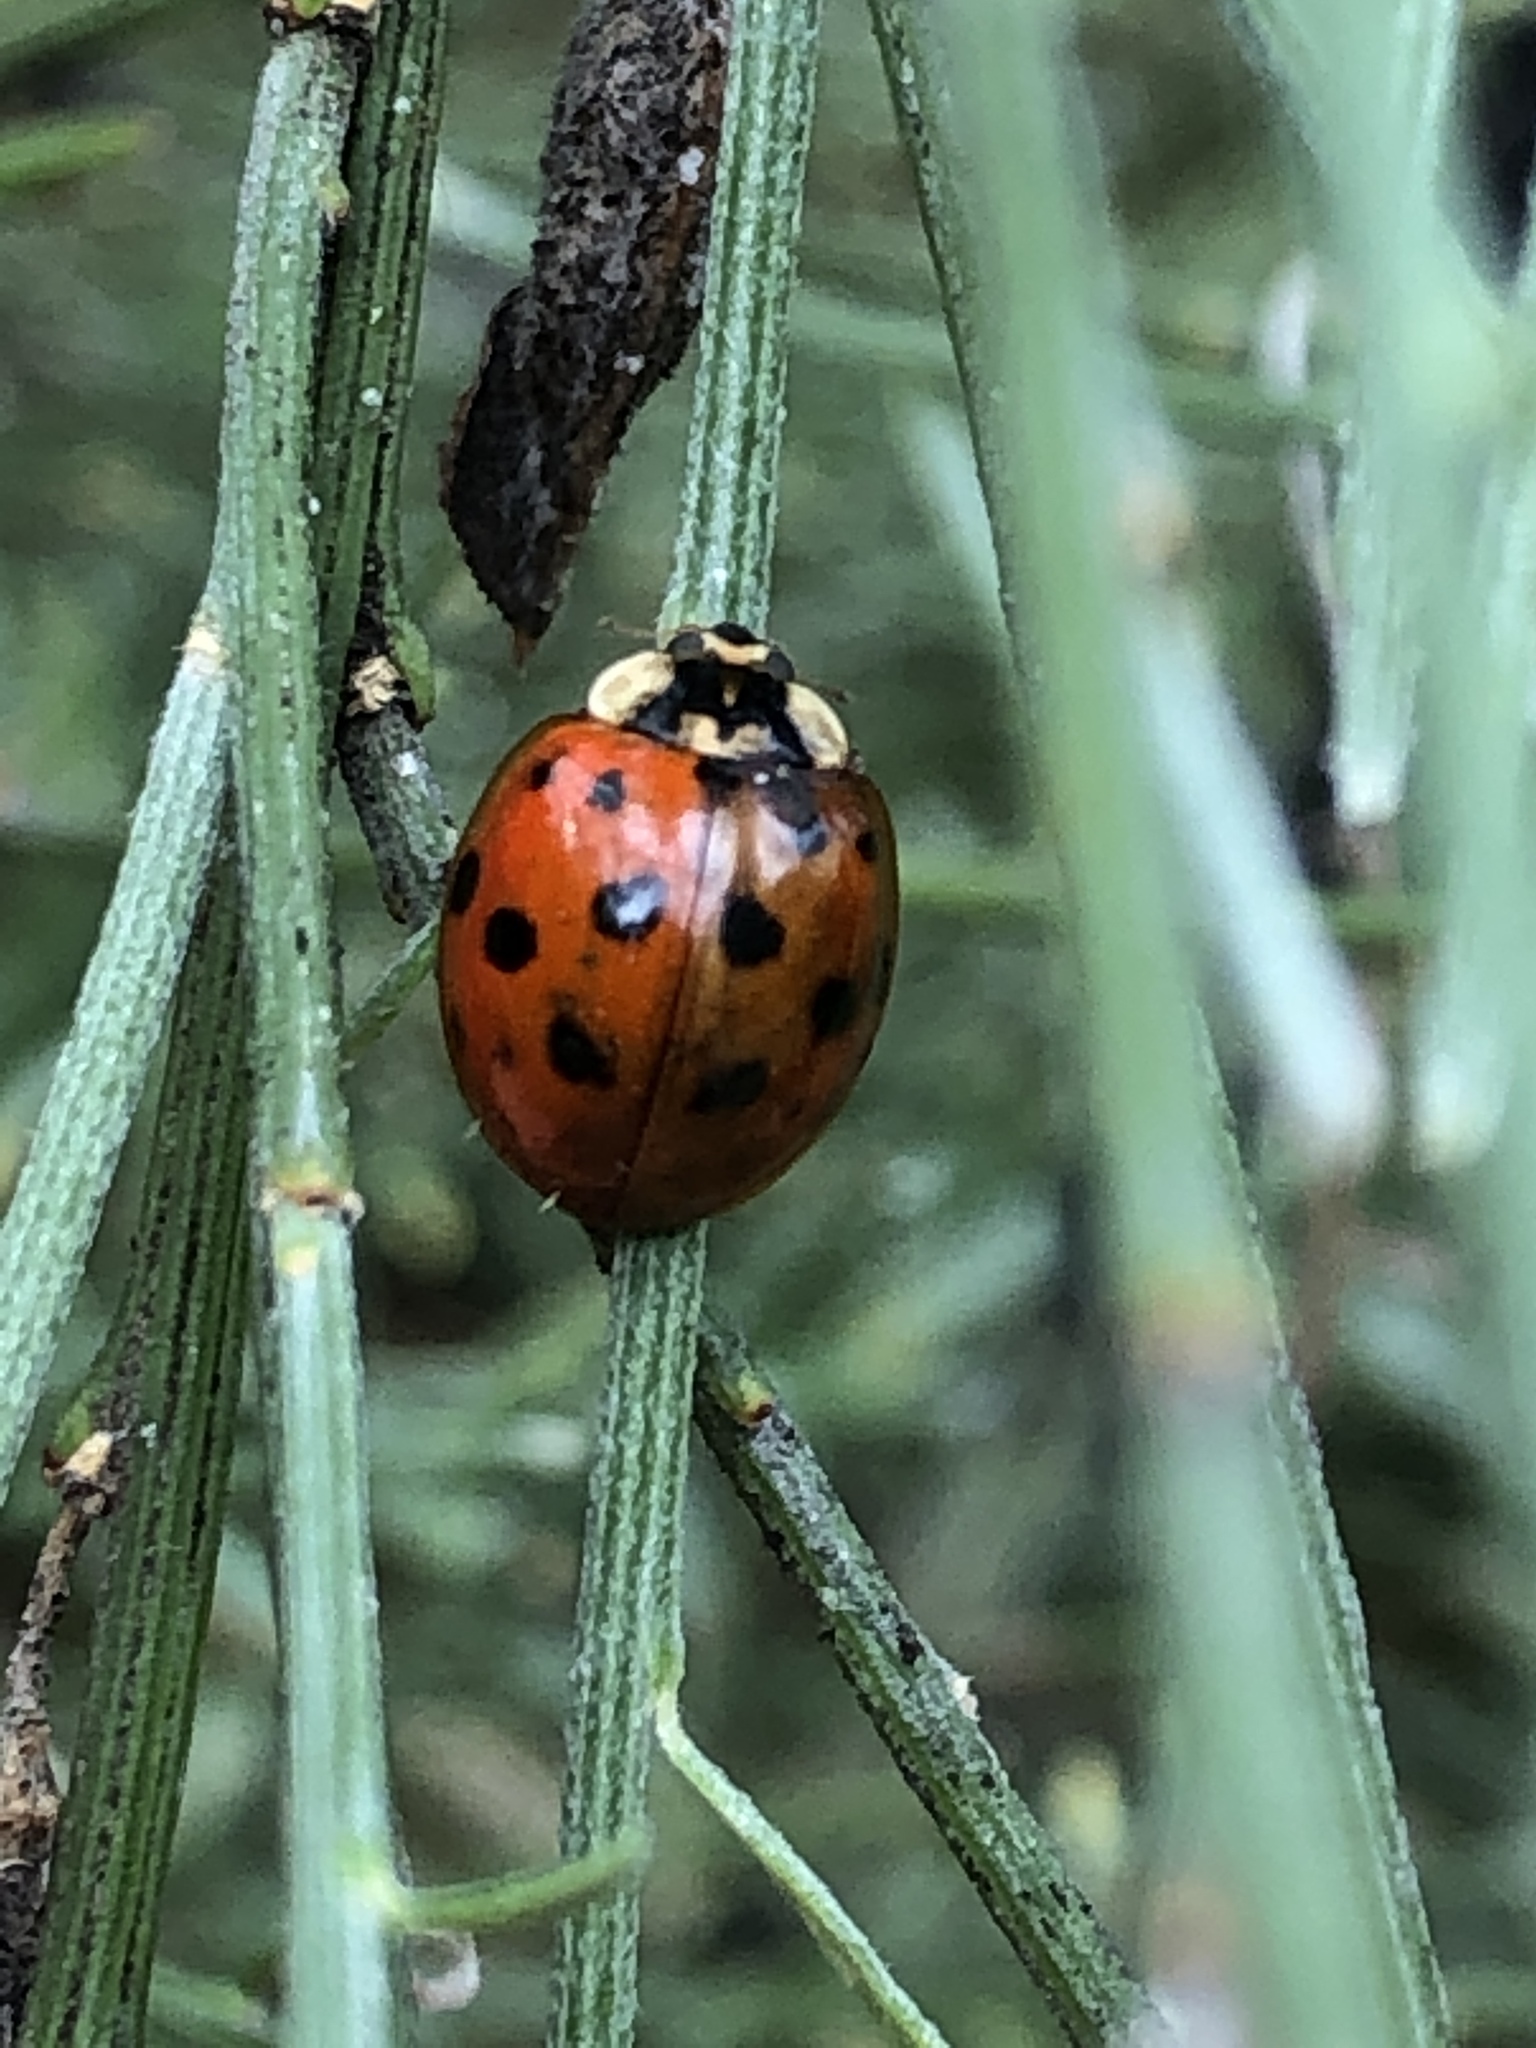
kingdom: Animalia
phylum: Arthropoda
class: Insecta
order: Coleoptera
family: Coccinellidae
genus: Harmonia
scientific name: Harmonia axyridis
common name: Harlequin ladybird
